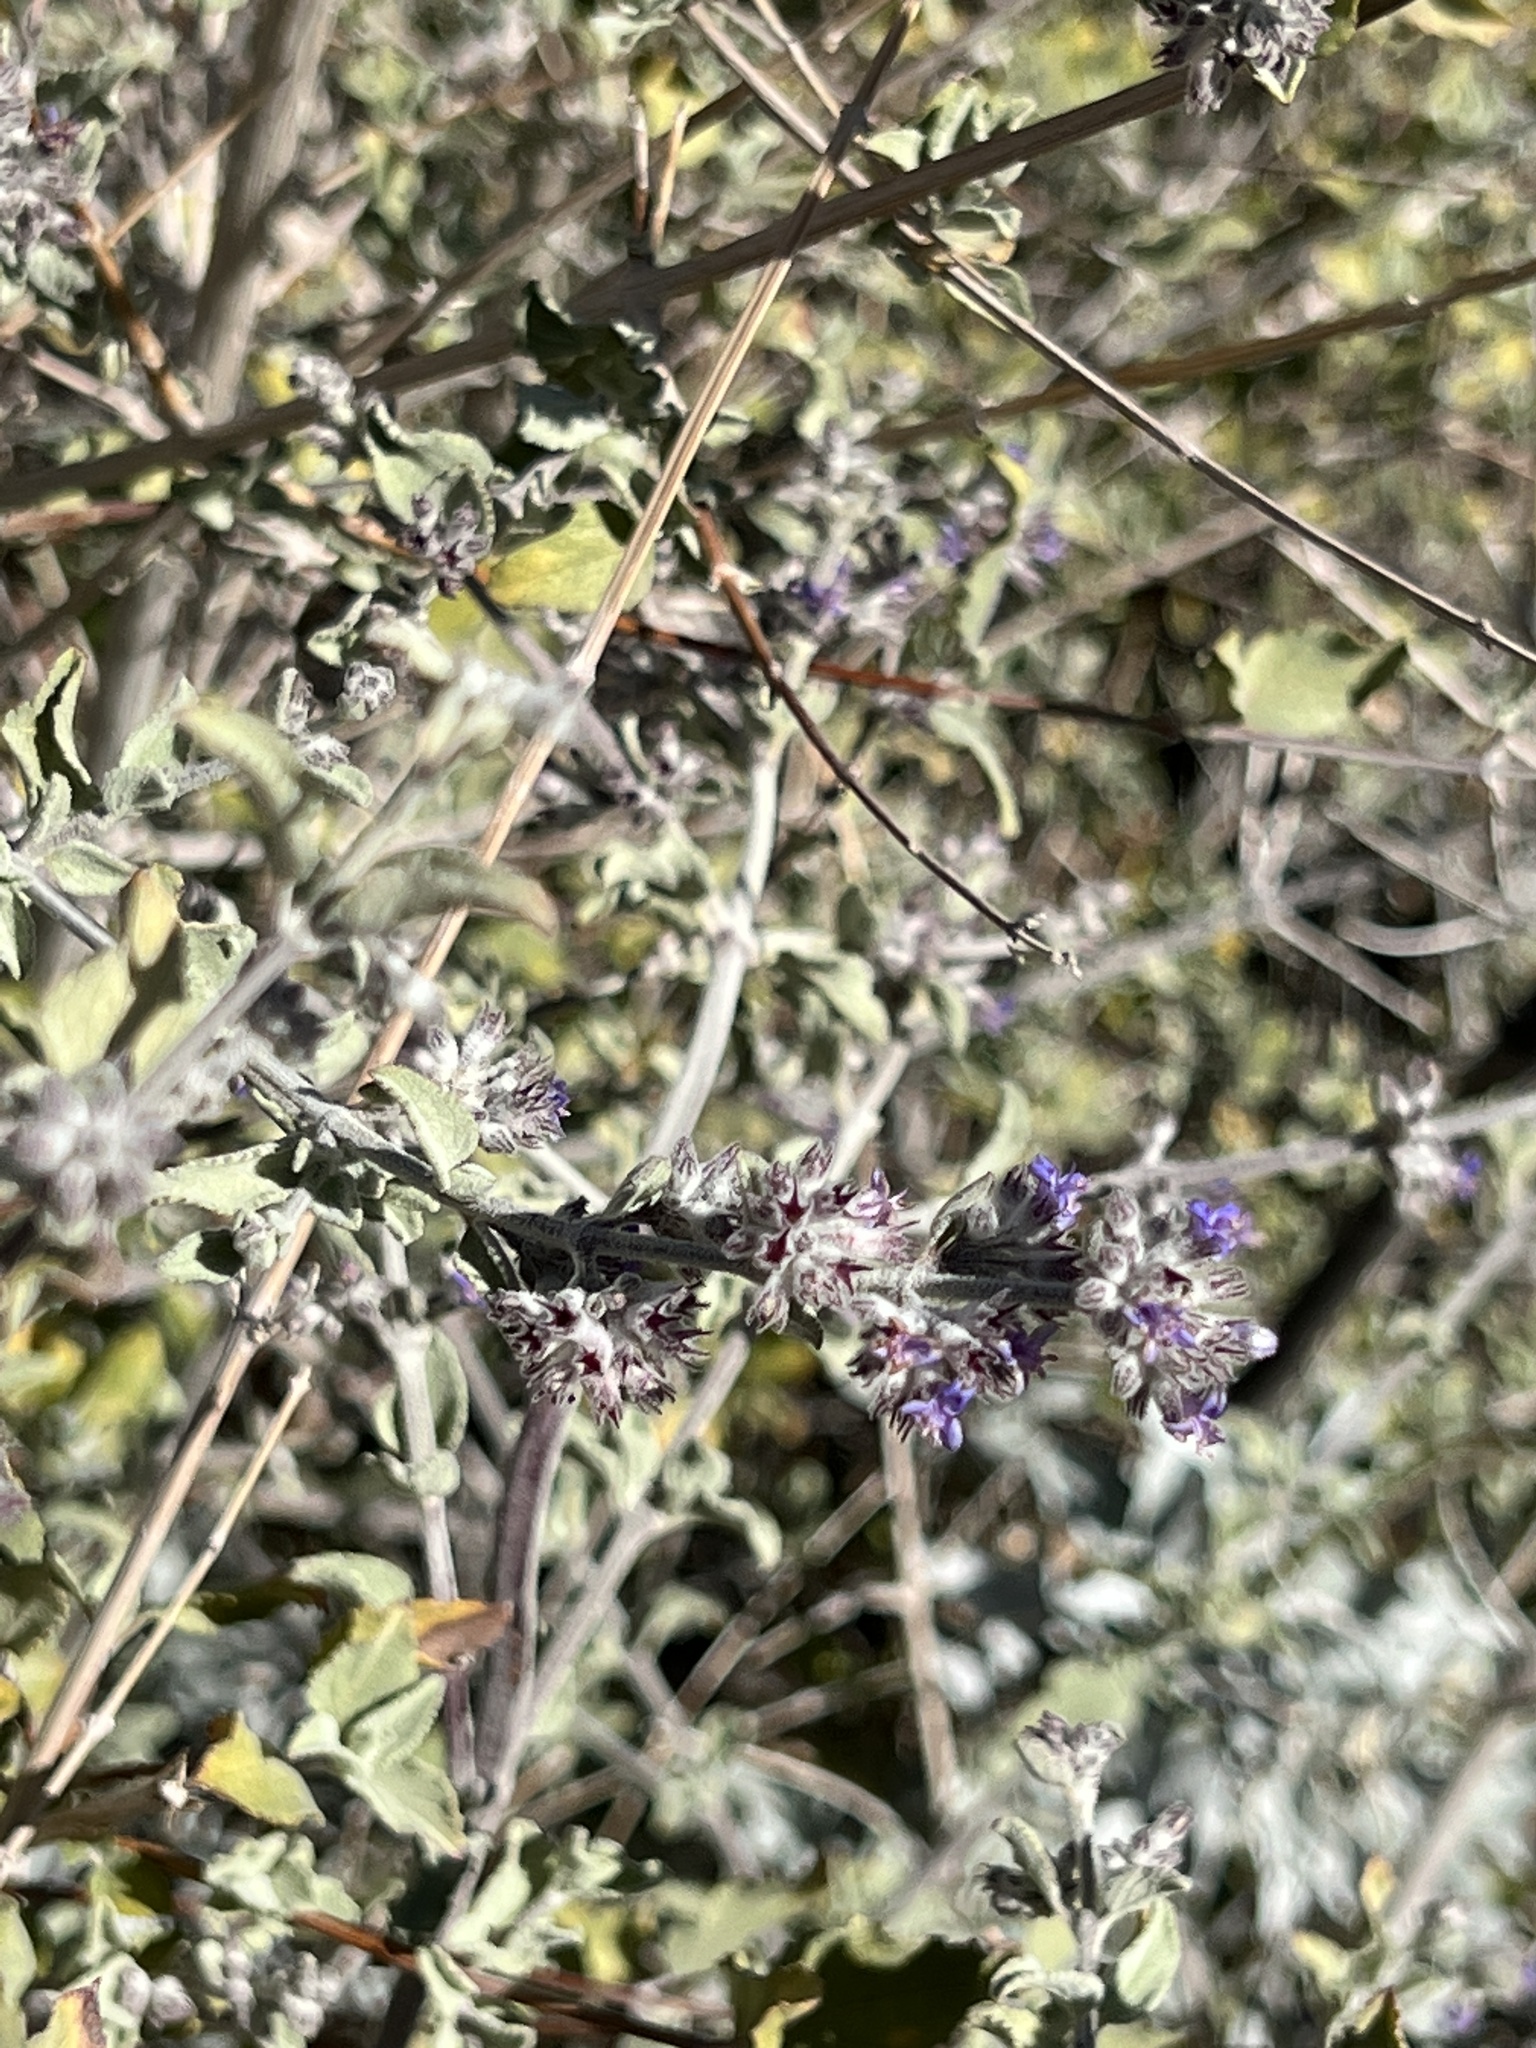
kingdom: Plantae
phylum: Tracheophyta
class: Magnoliopsida
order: Lamiales
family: Lamiaceae
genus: Condea
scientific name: Condea emoryi
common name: Chia
